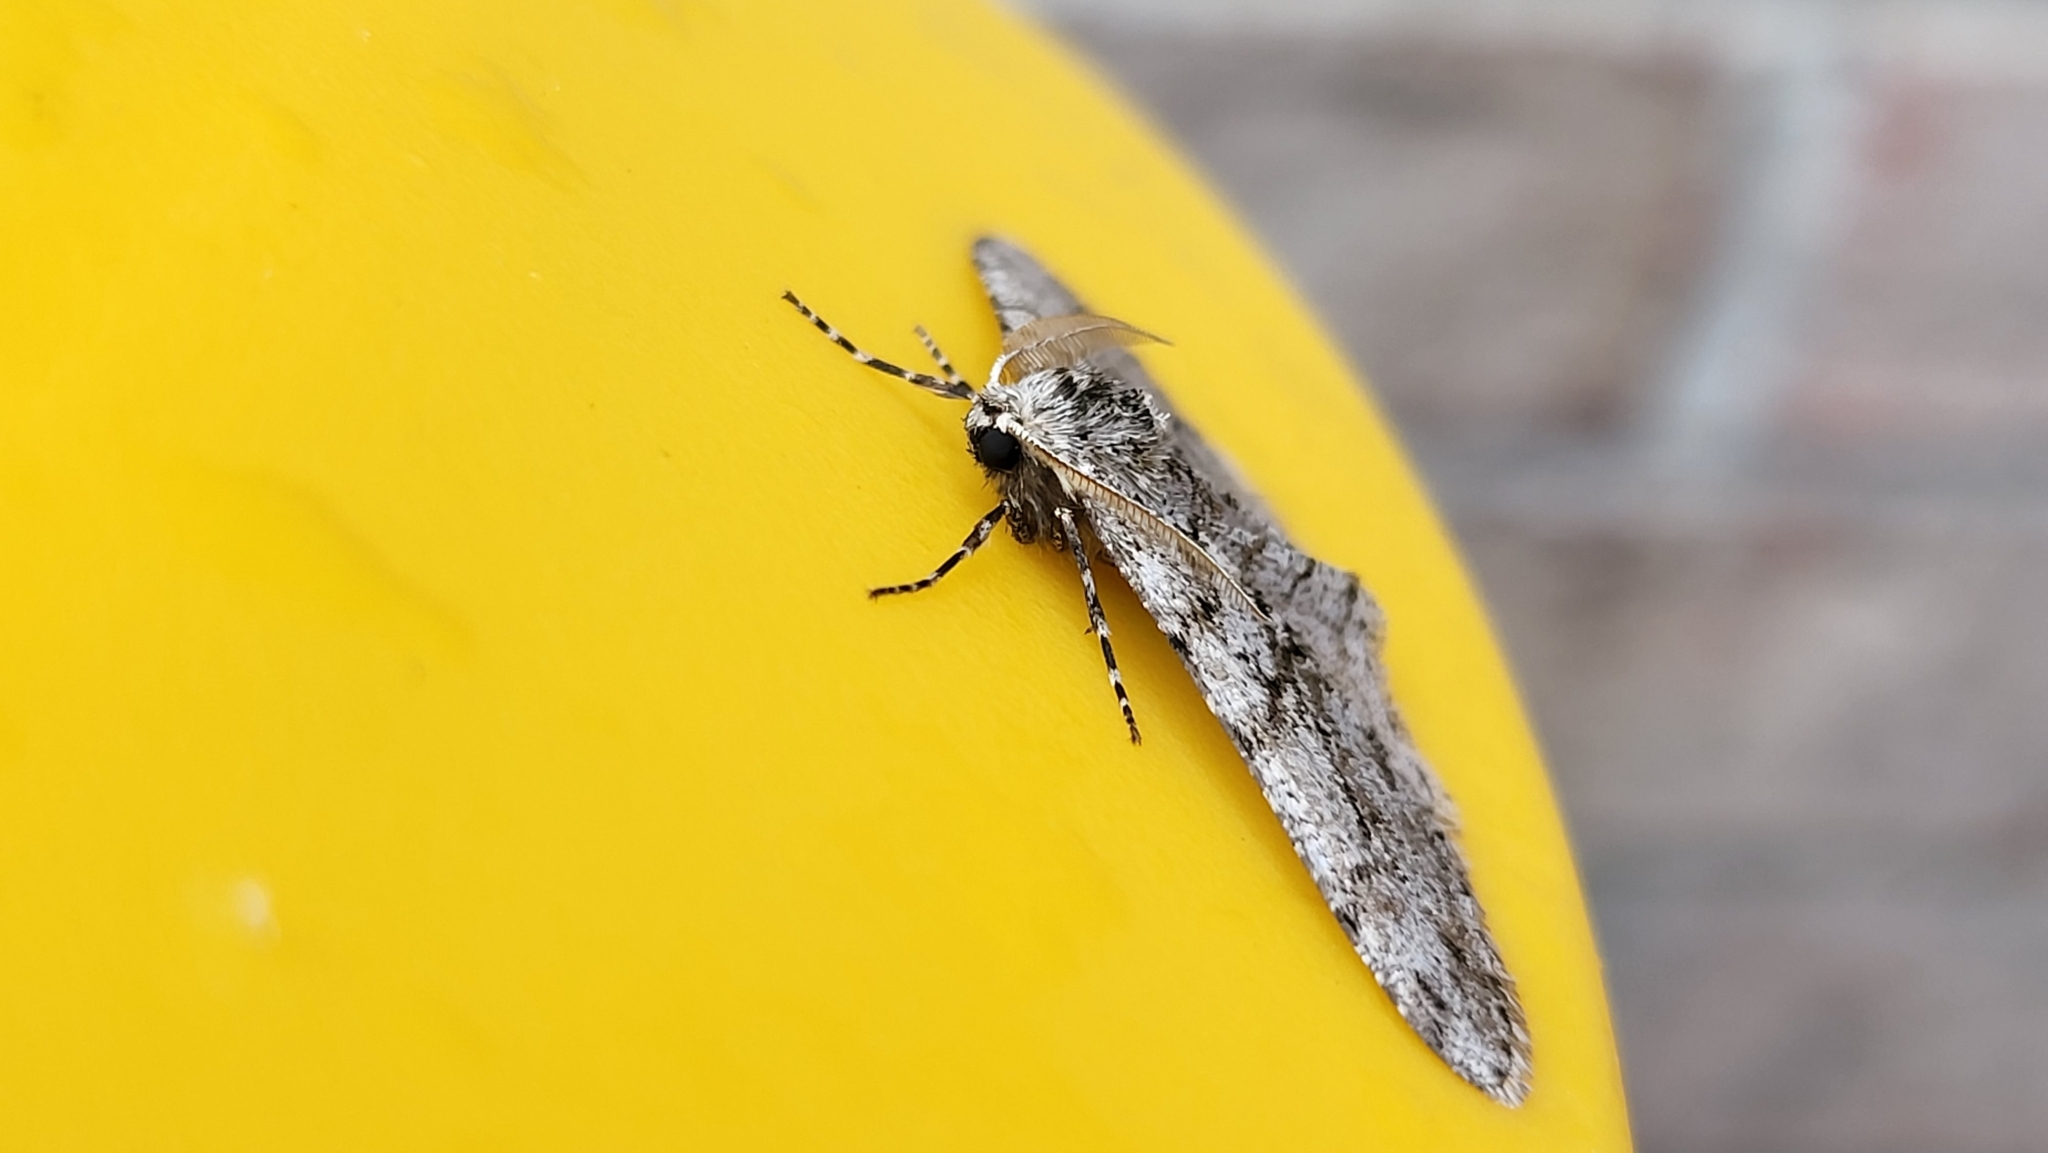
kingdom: Animalia
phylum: Arthropoda
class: Insecta
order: Lepidoptera
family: Geometridae
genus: Phigalia
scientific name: Phigalia titea
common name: Spiny looper
